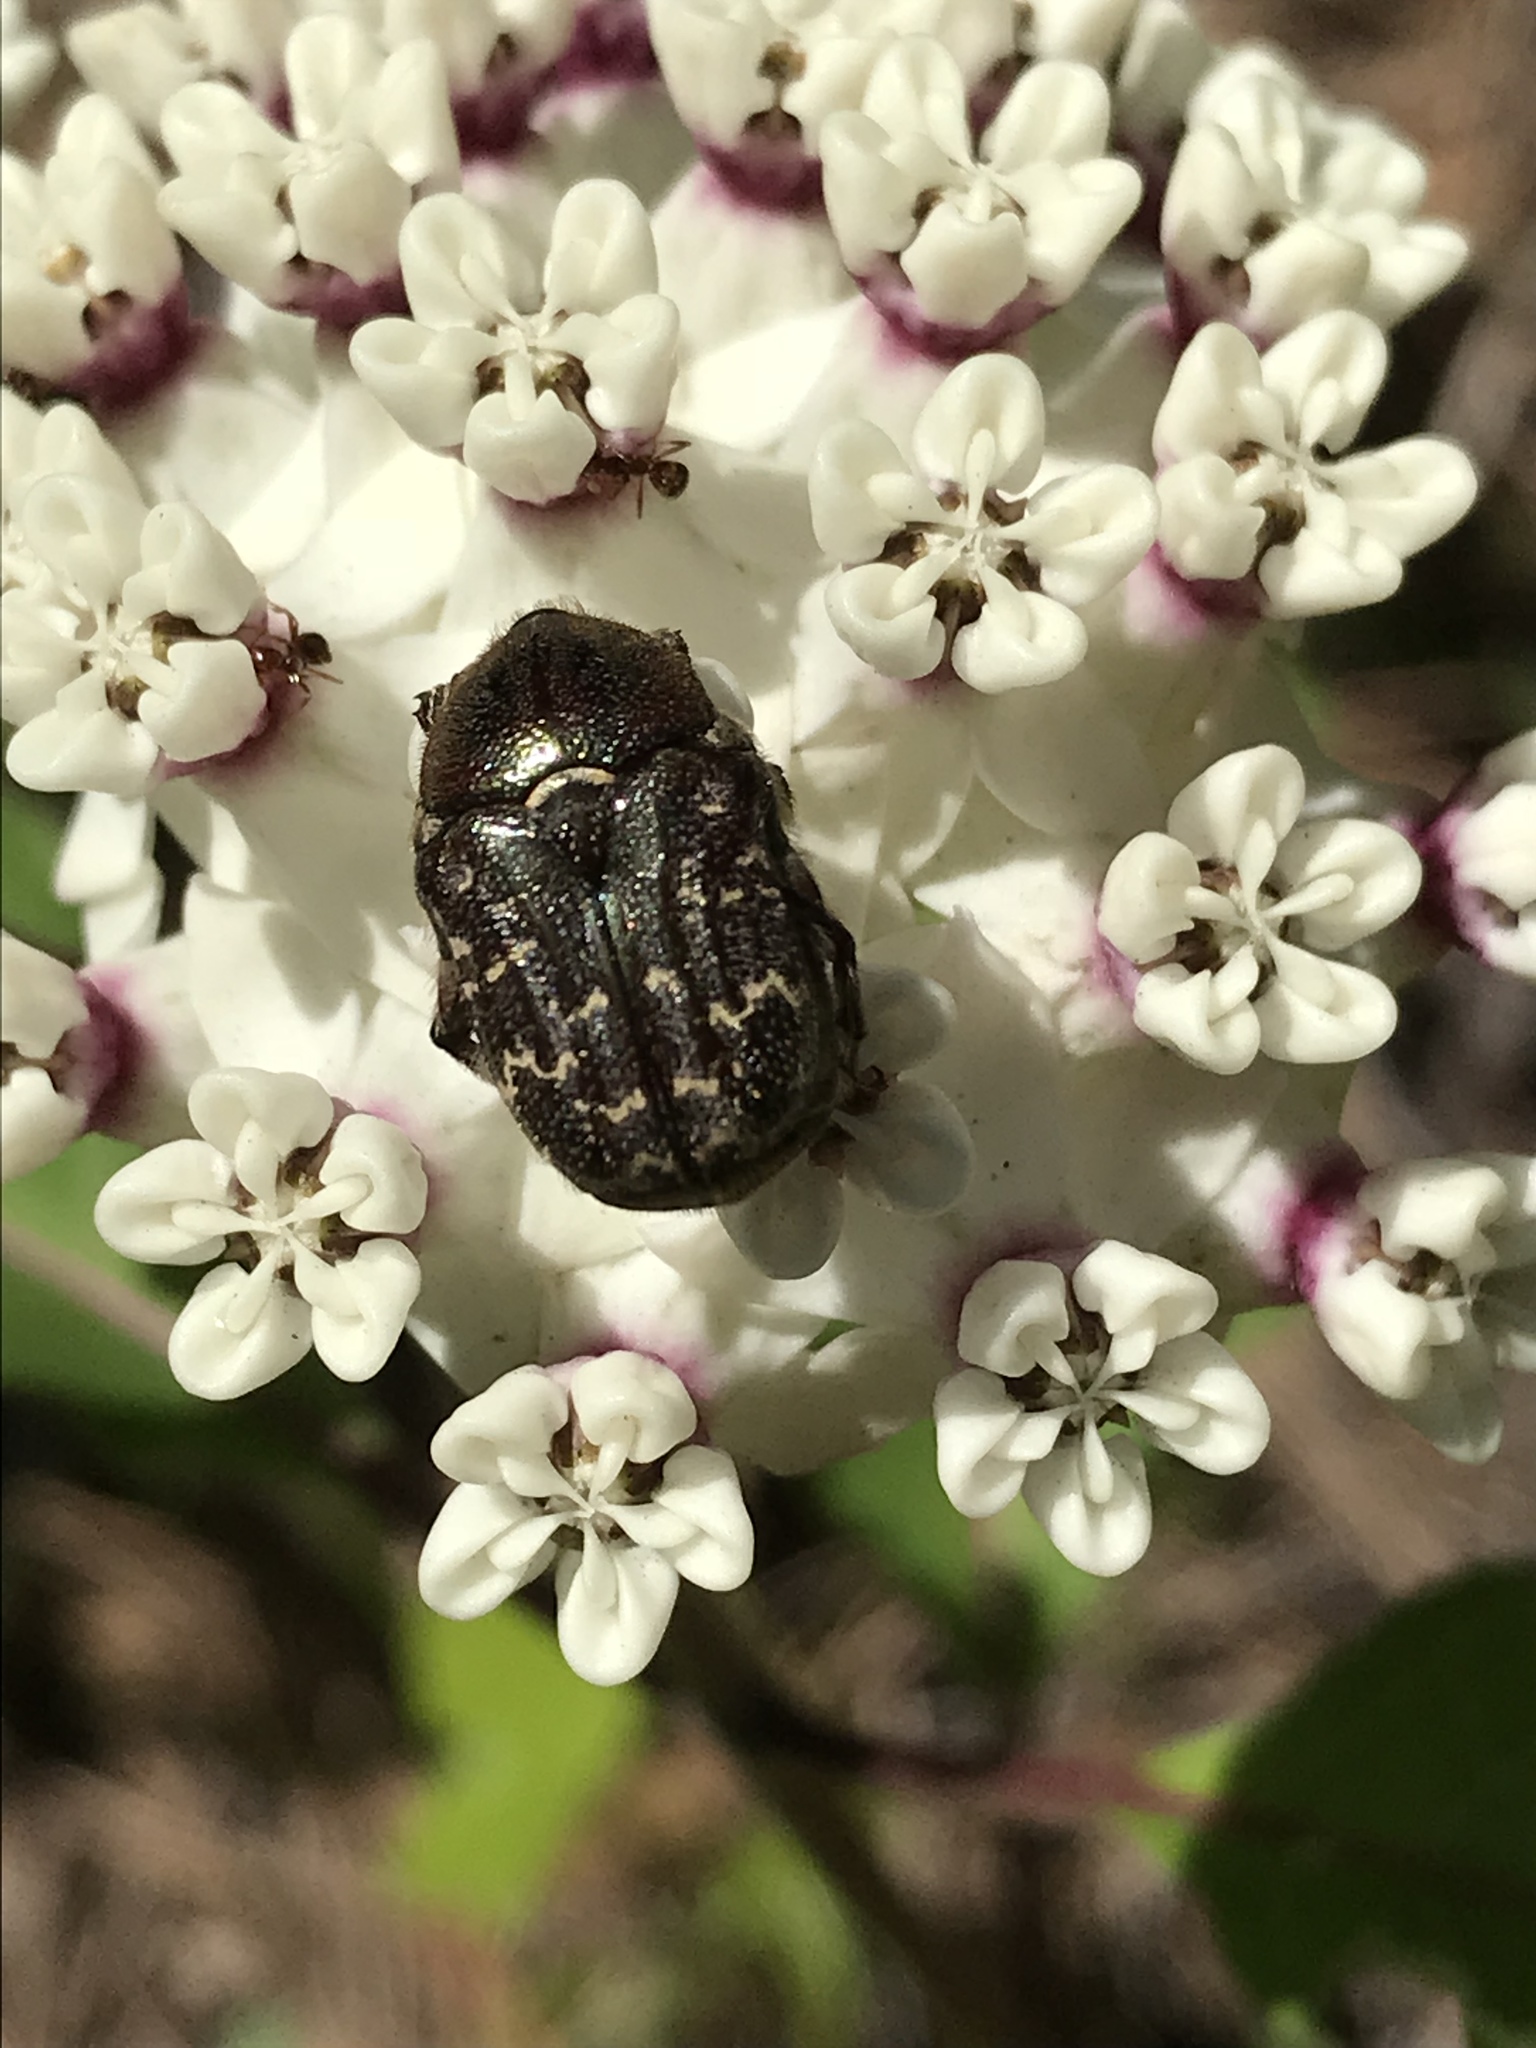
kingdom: Animalia
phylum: Arthropoda
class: Insecta
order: Coleoptera
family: Scarabaeidae
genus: Euphoria
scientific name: Euphoria sepulcralis
